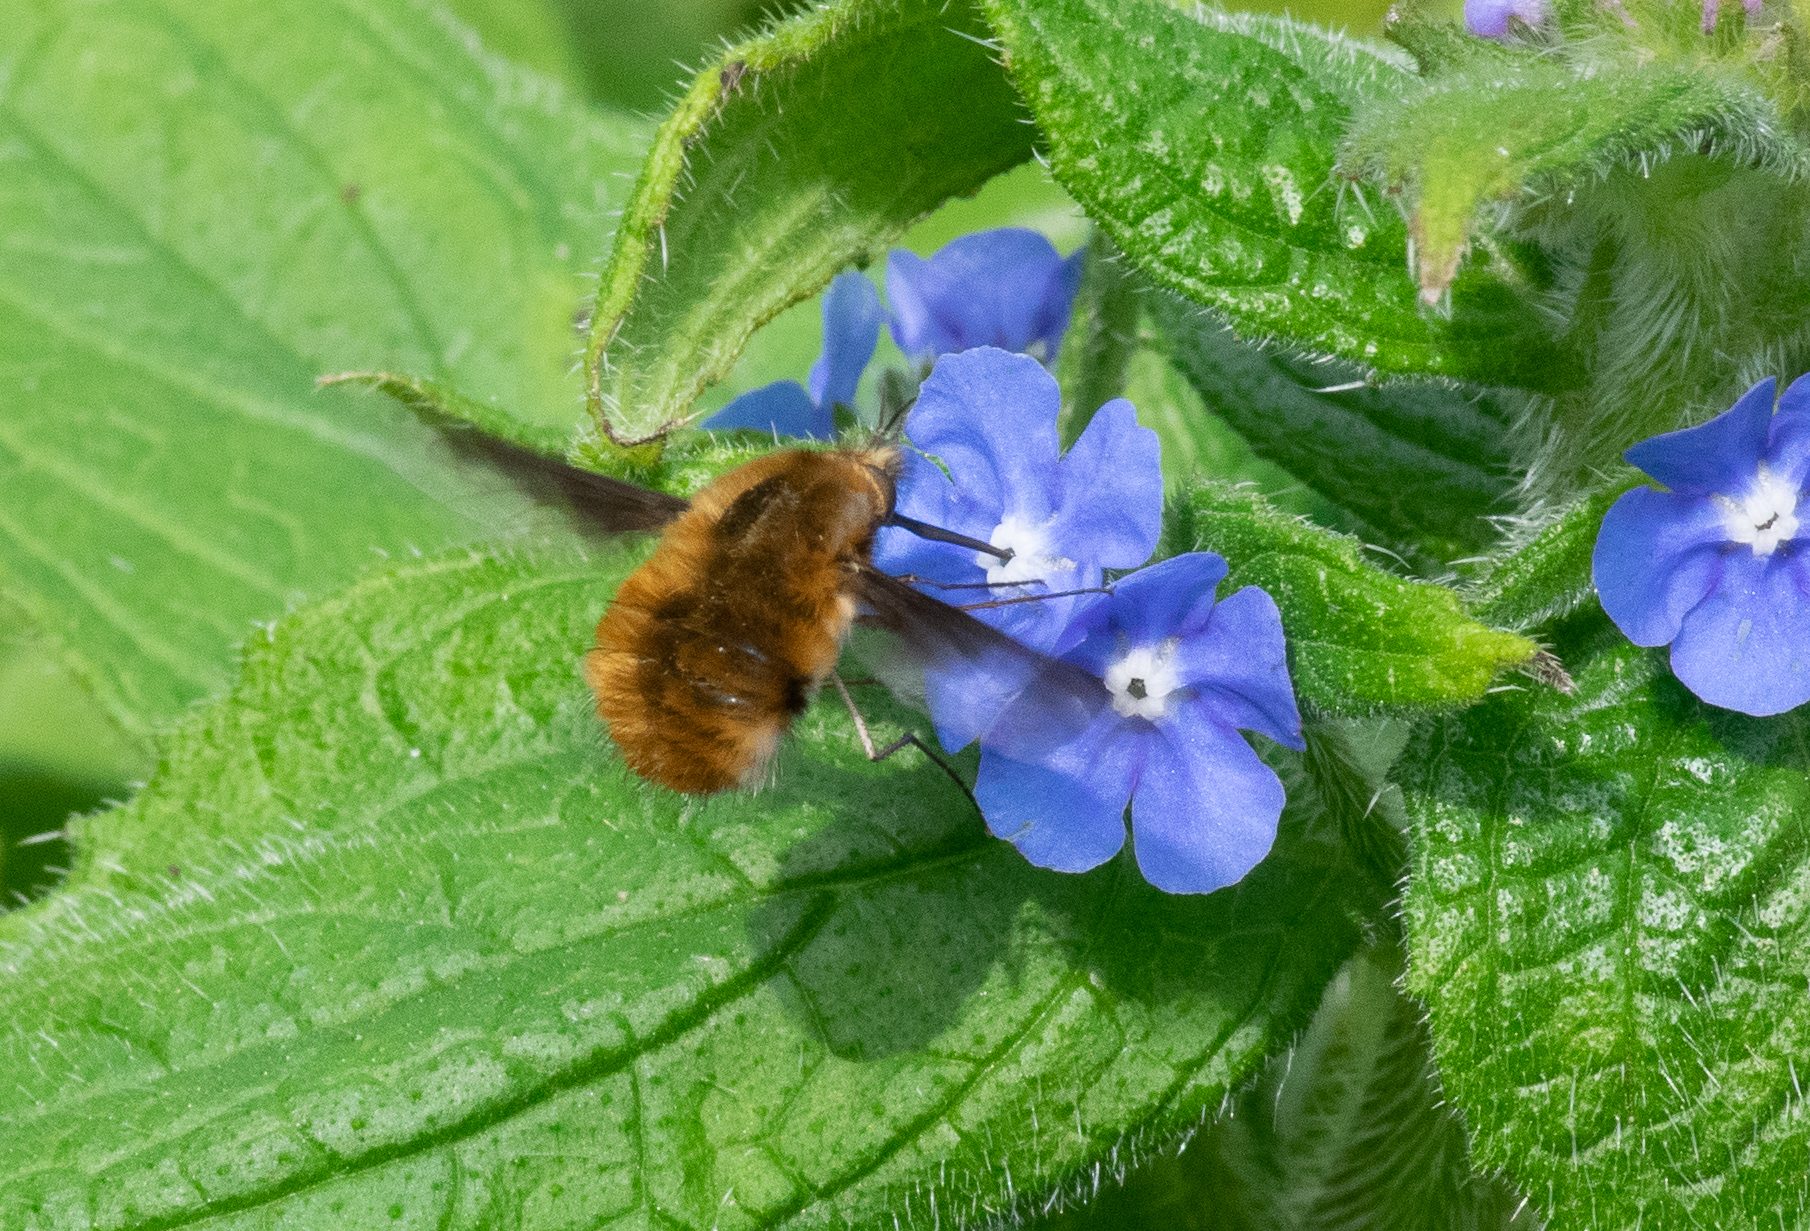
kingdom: Animalia
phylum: Arthropoda
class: Insecta
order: Diptera
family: Bombyliidae
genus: Bombylius
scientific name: Bombylius major
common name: Bee fly
